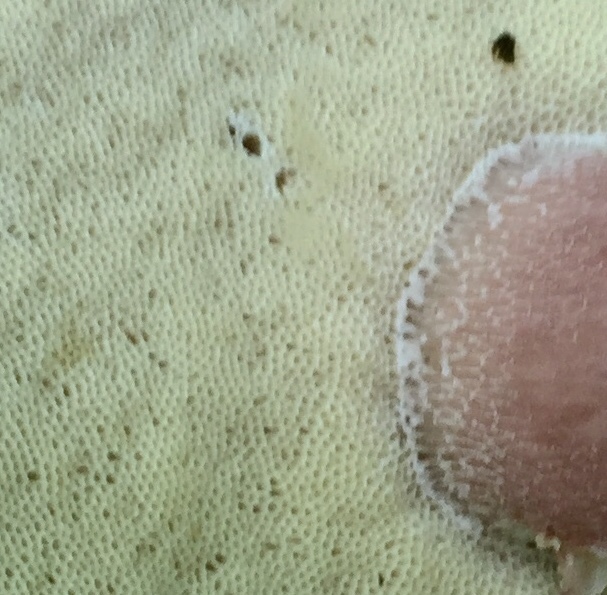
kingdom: Fungi
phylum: Basidiomycota
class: Agaricomycetes
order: Boletales
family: Boletaceae
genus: Xanthoconium
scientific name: Xanthoconium separans
